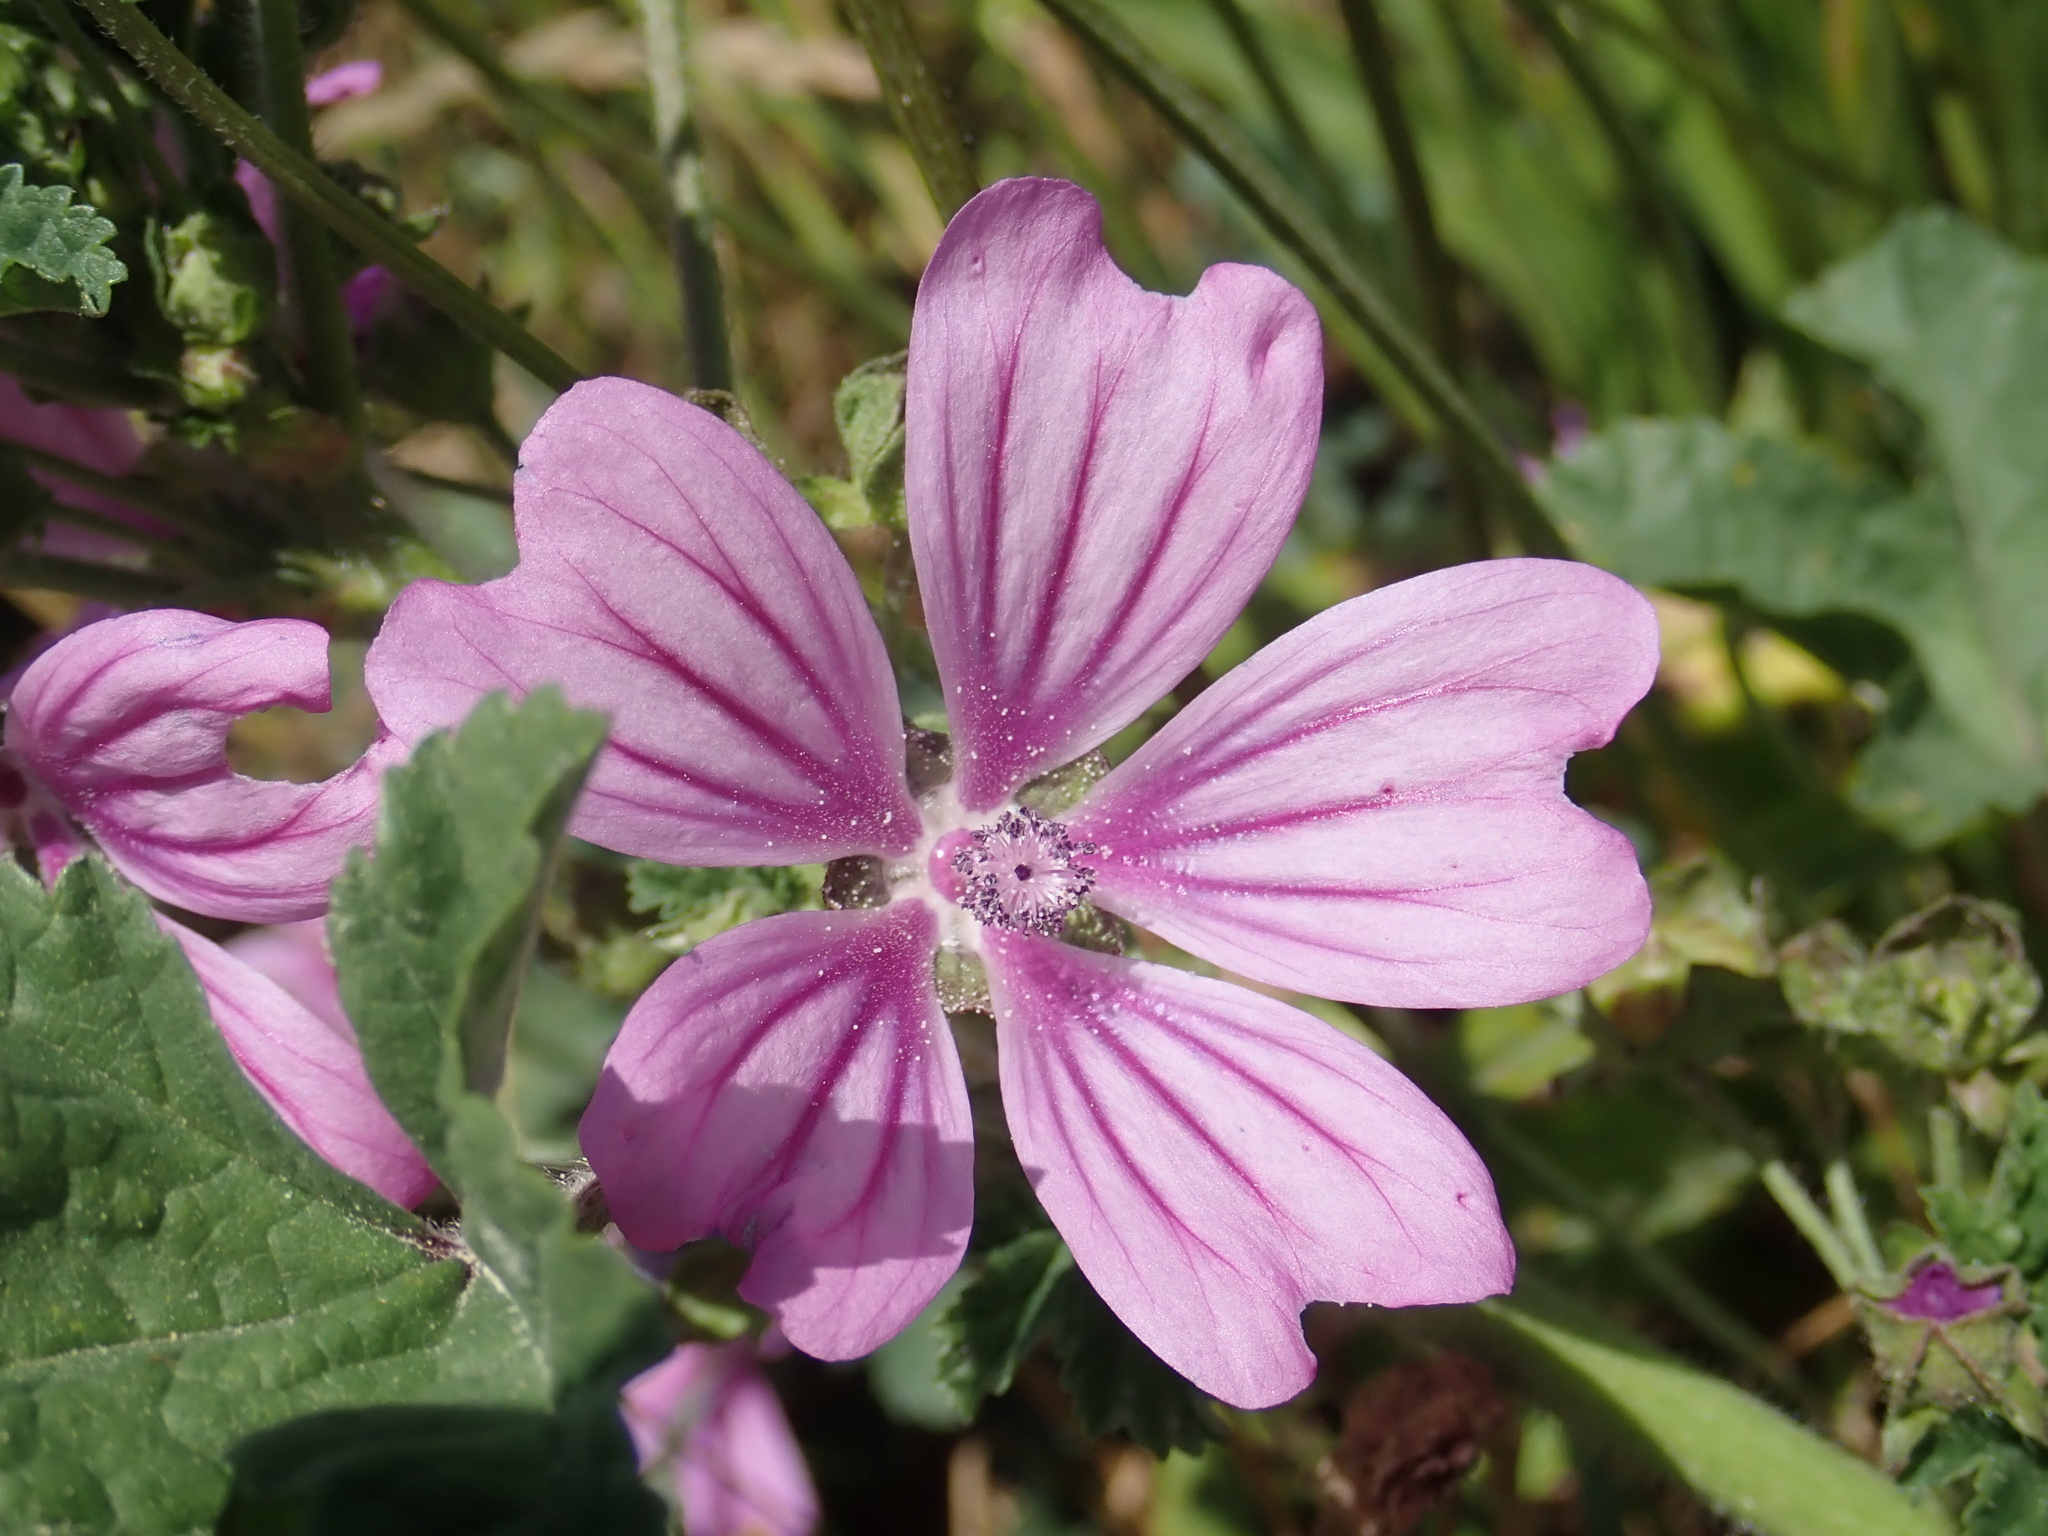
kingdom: Plantae
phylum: Tracheophyta
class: Magnoliopsida
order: Malvales
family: Malvaceae
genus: Malva
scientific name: Malva sylvestris
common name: Common mallow
